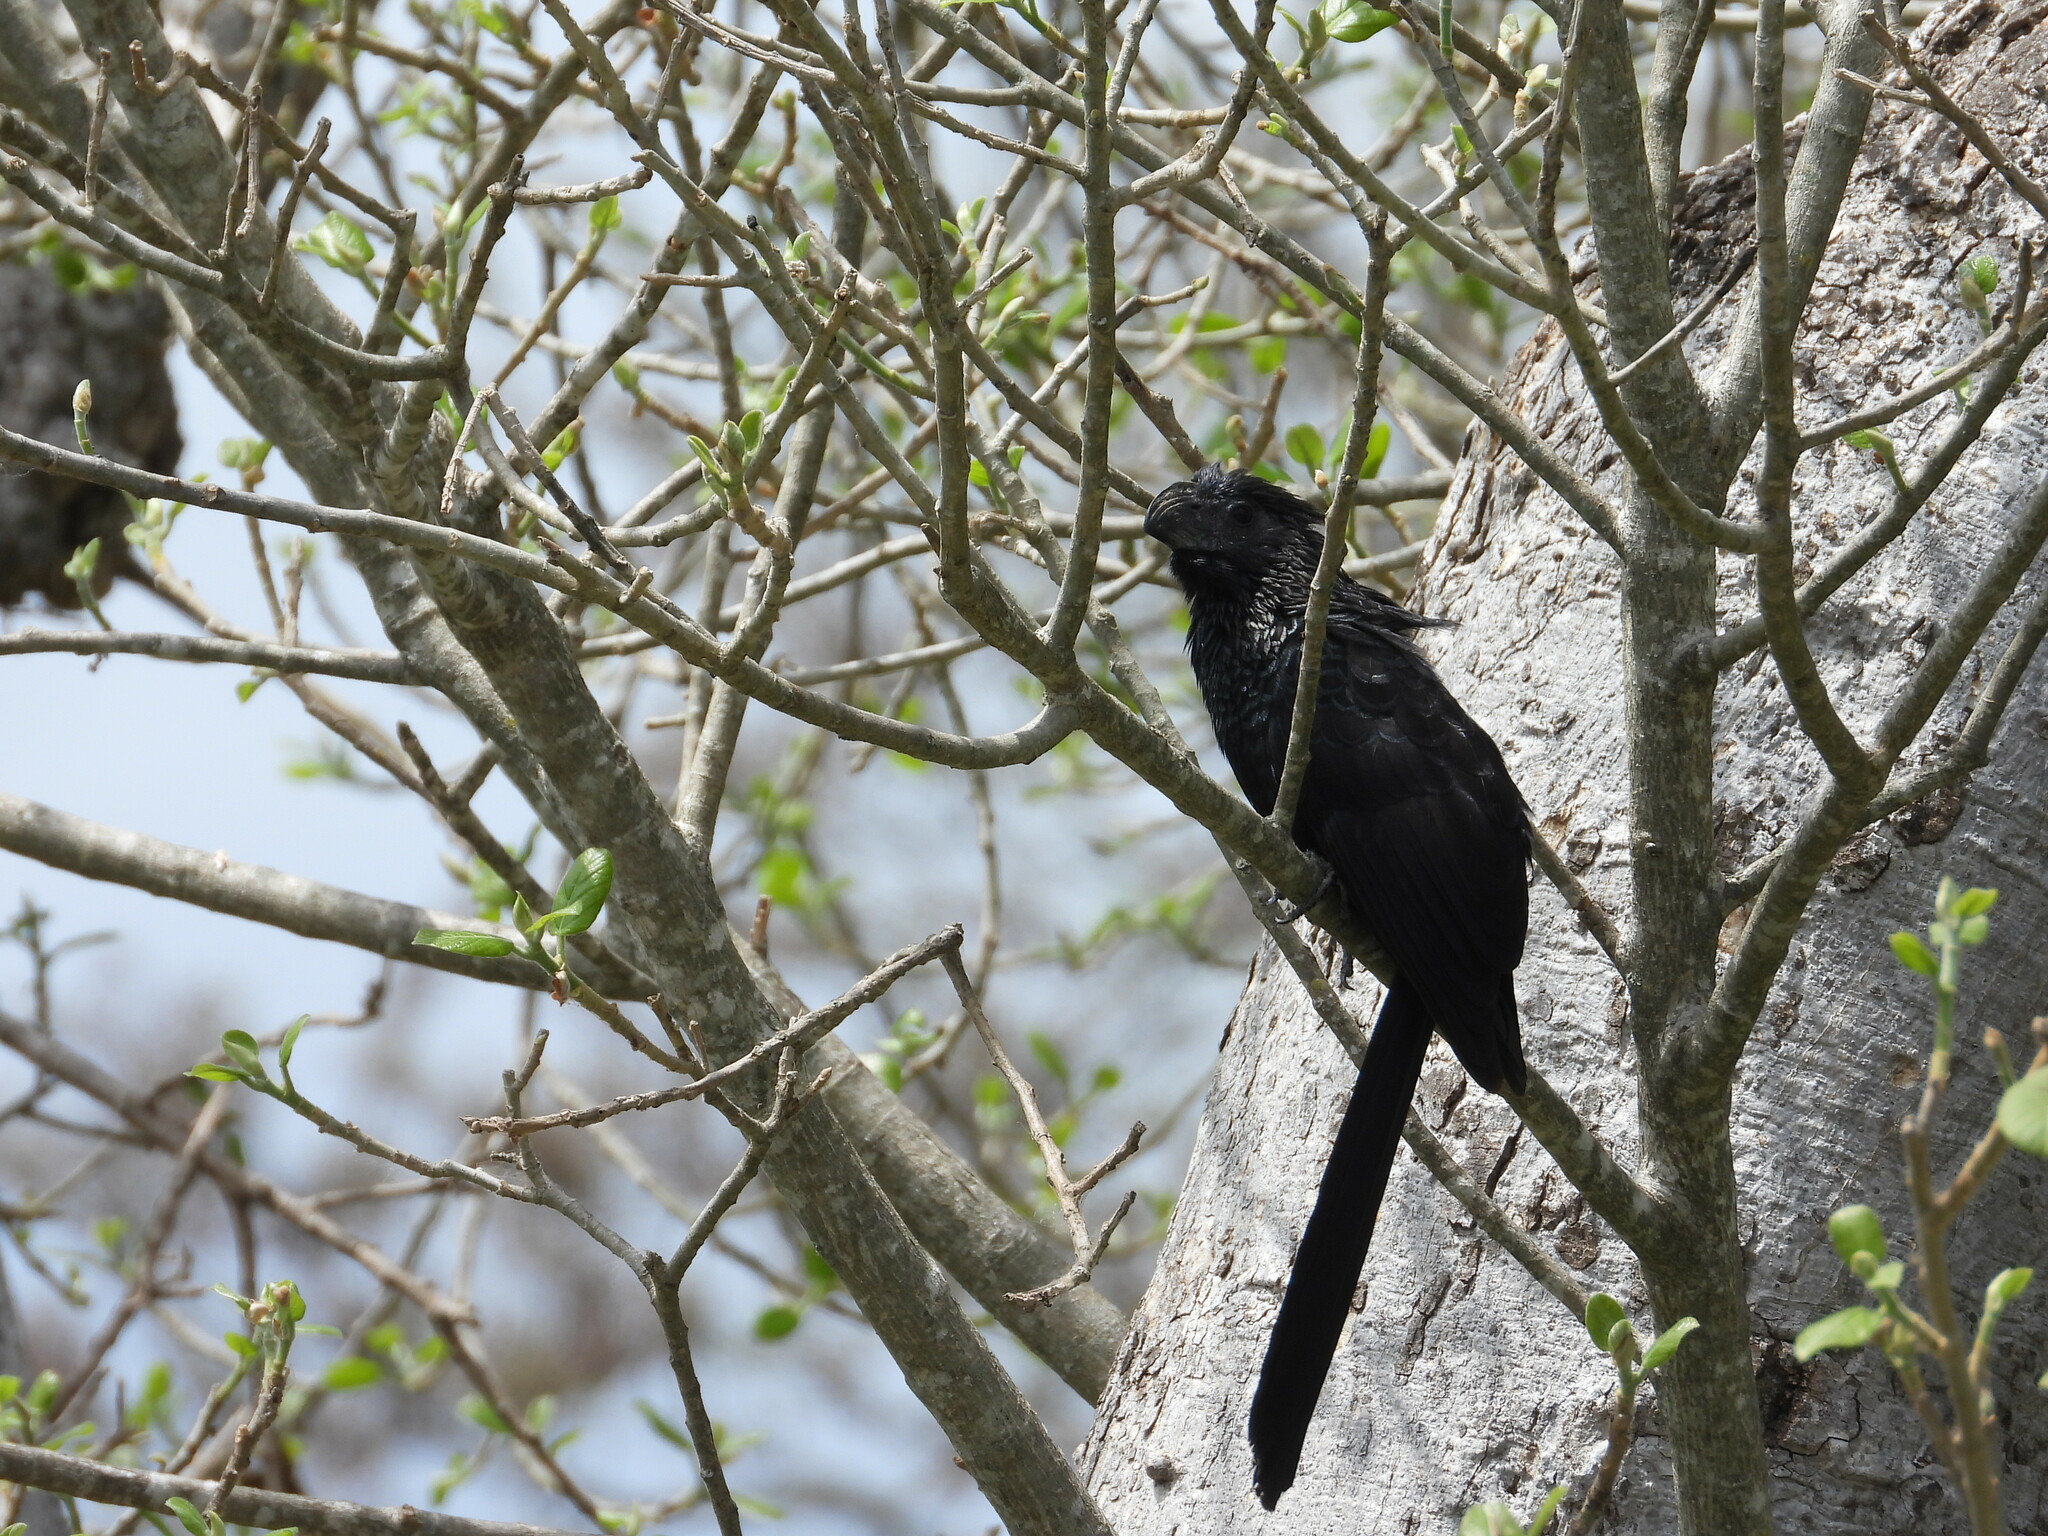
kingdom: Animalia
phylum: Chordata
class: Aves
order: Cuculiformes
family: Cuculidae
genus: Crotophaga
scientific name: Crotophaga sulcirostris
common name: Groove-billed ani
